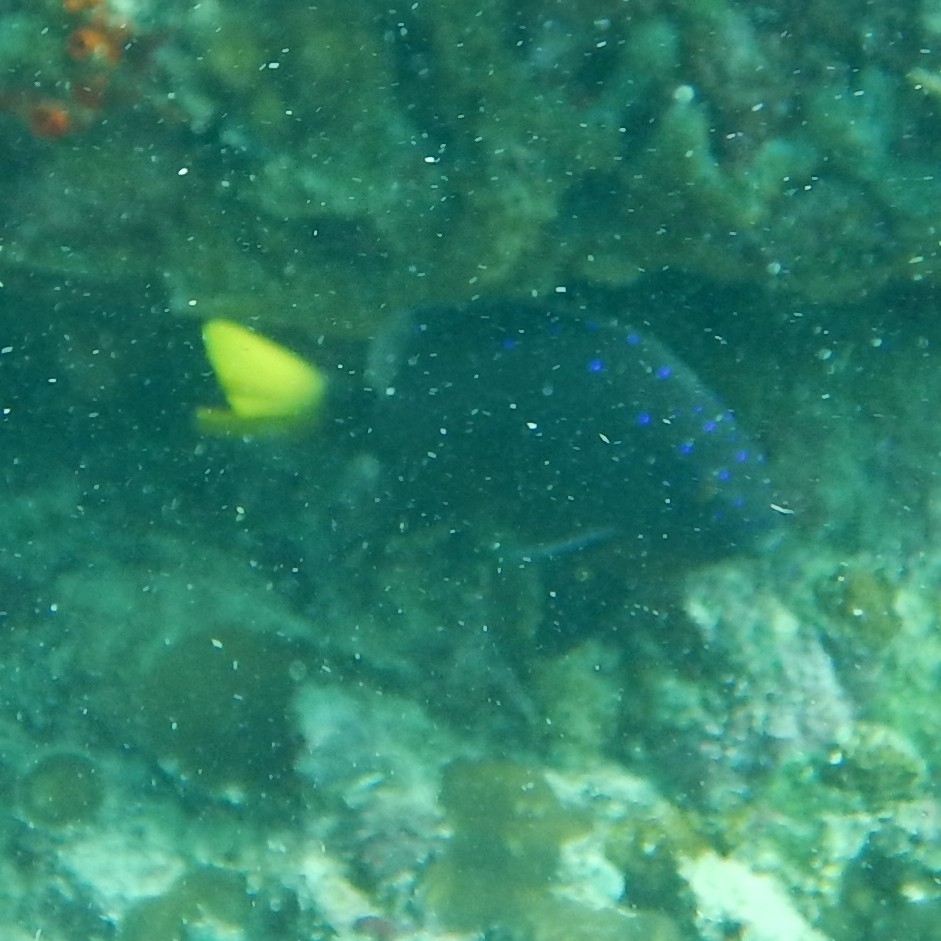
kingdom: Animalia
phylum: Chordata
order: Perciformes
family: Pomacentridae
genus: Microspathodon
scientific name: Microspathodon chrysurus
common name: Yellowtail damselfish
